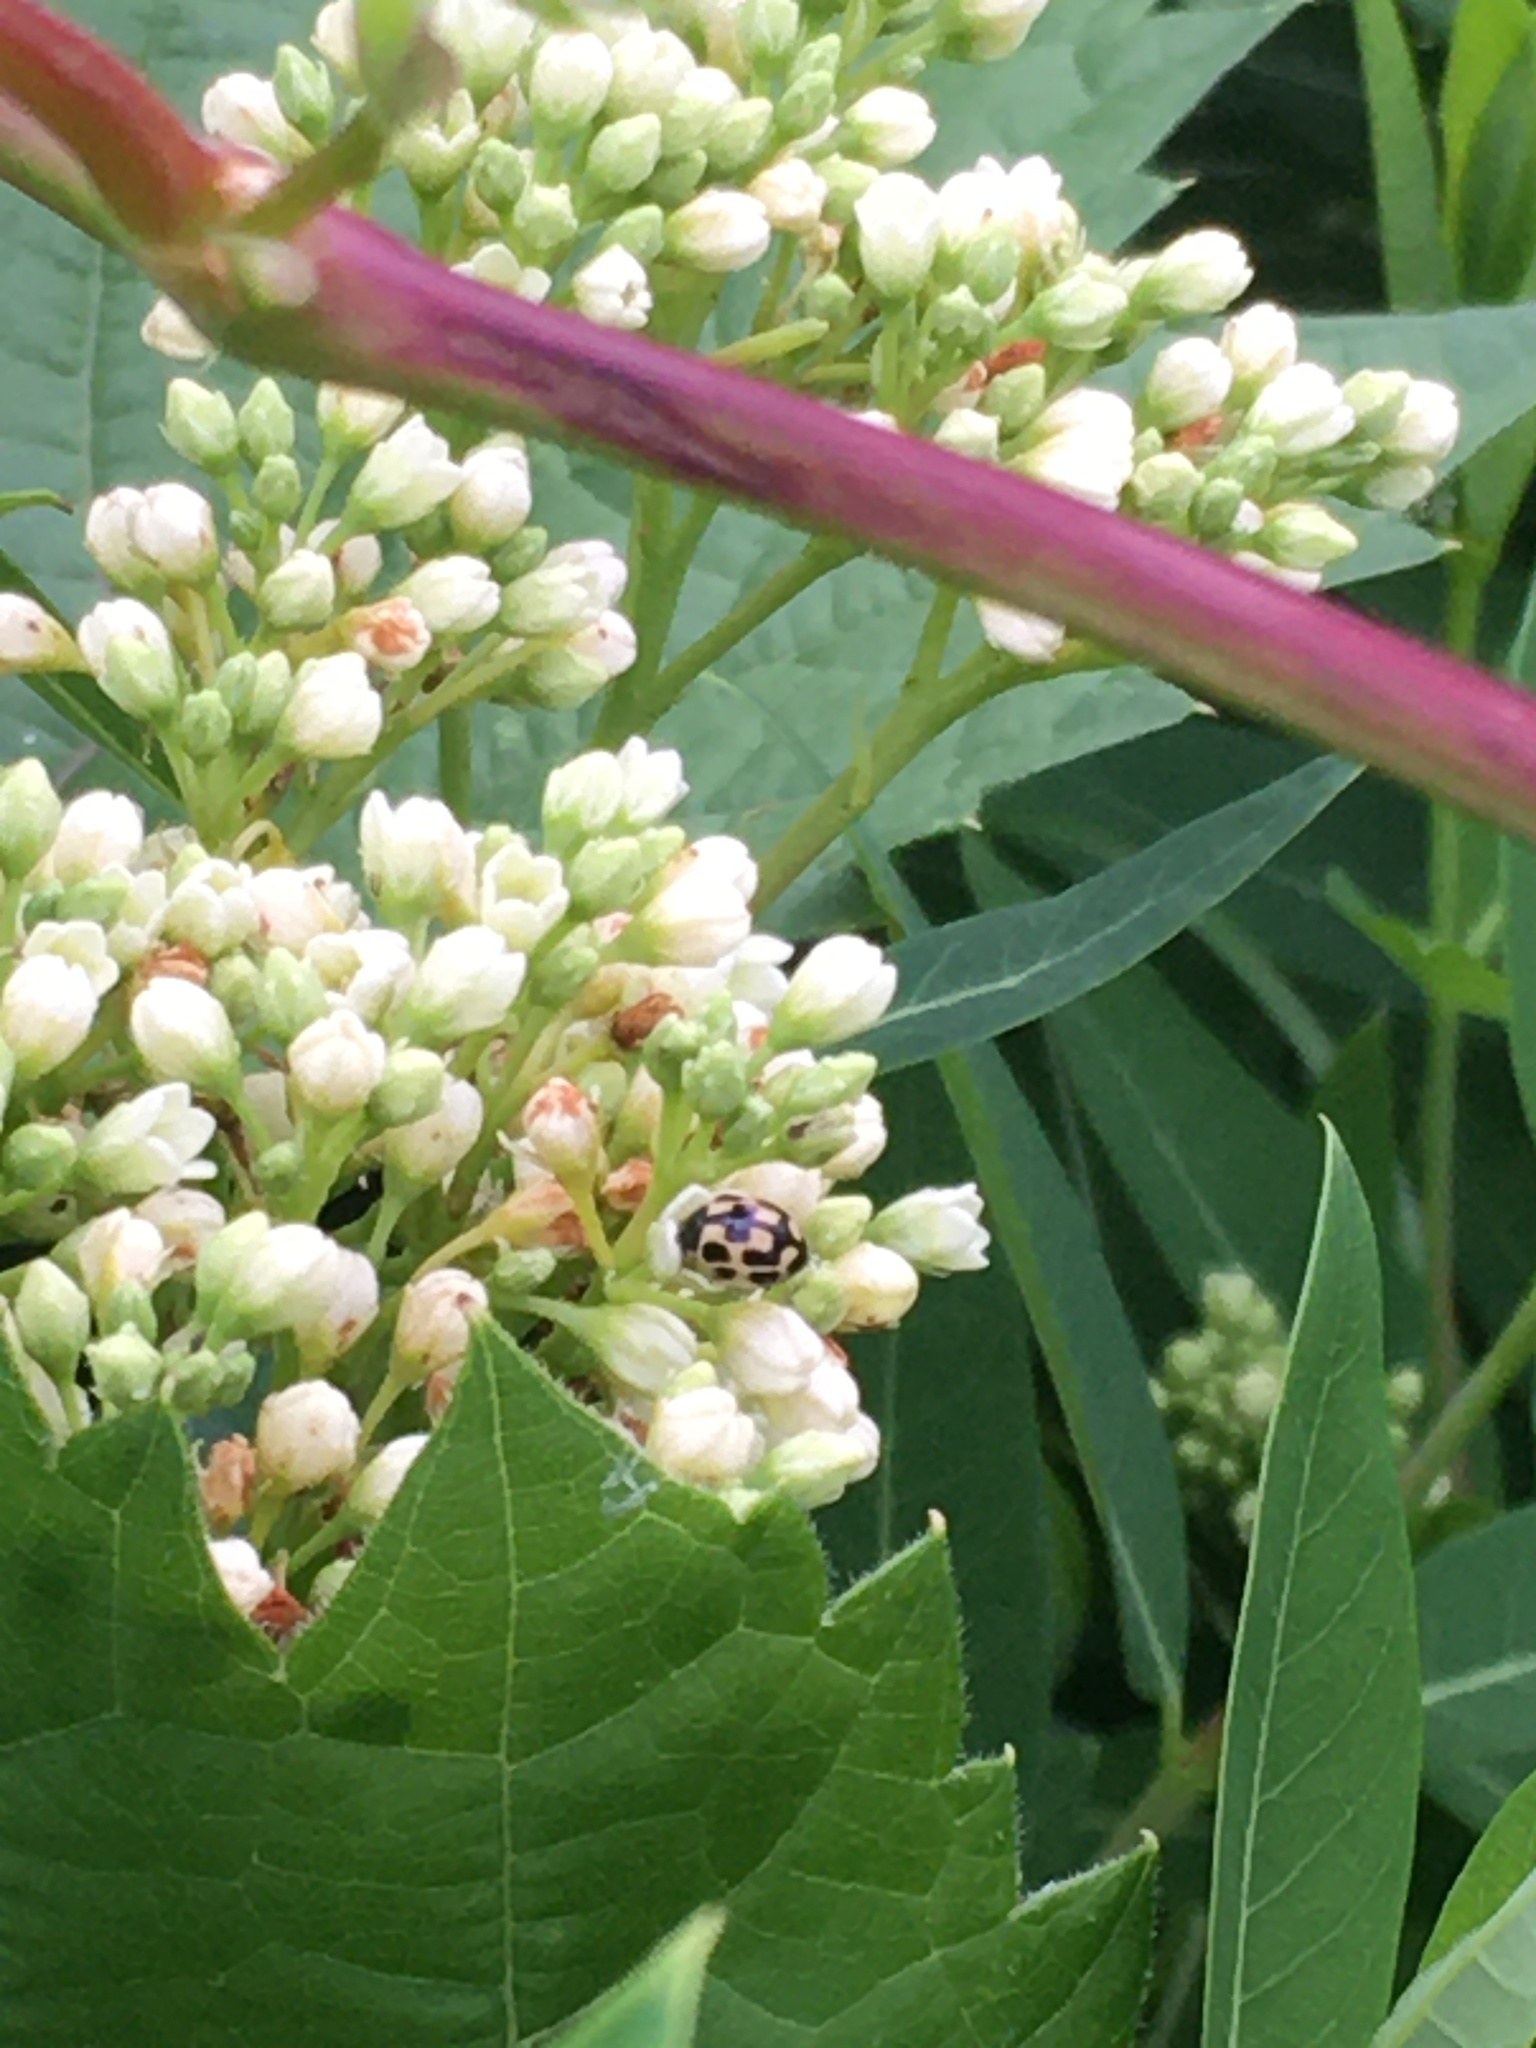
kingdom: Animalia
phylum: Arthropoda
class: Insecta
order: Coleoptera
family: Coccinellidae
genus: Propylaea
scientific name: Propylaea quatuordecimpunctata
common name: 14-spotted ladybird beetle
